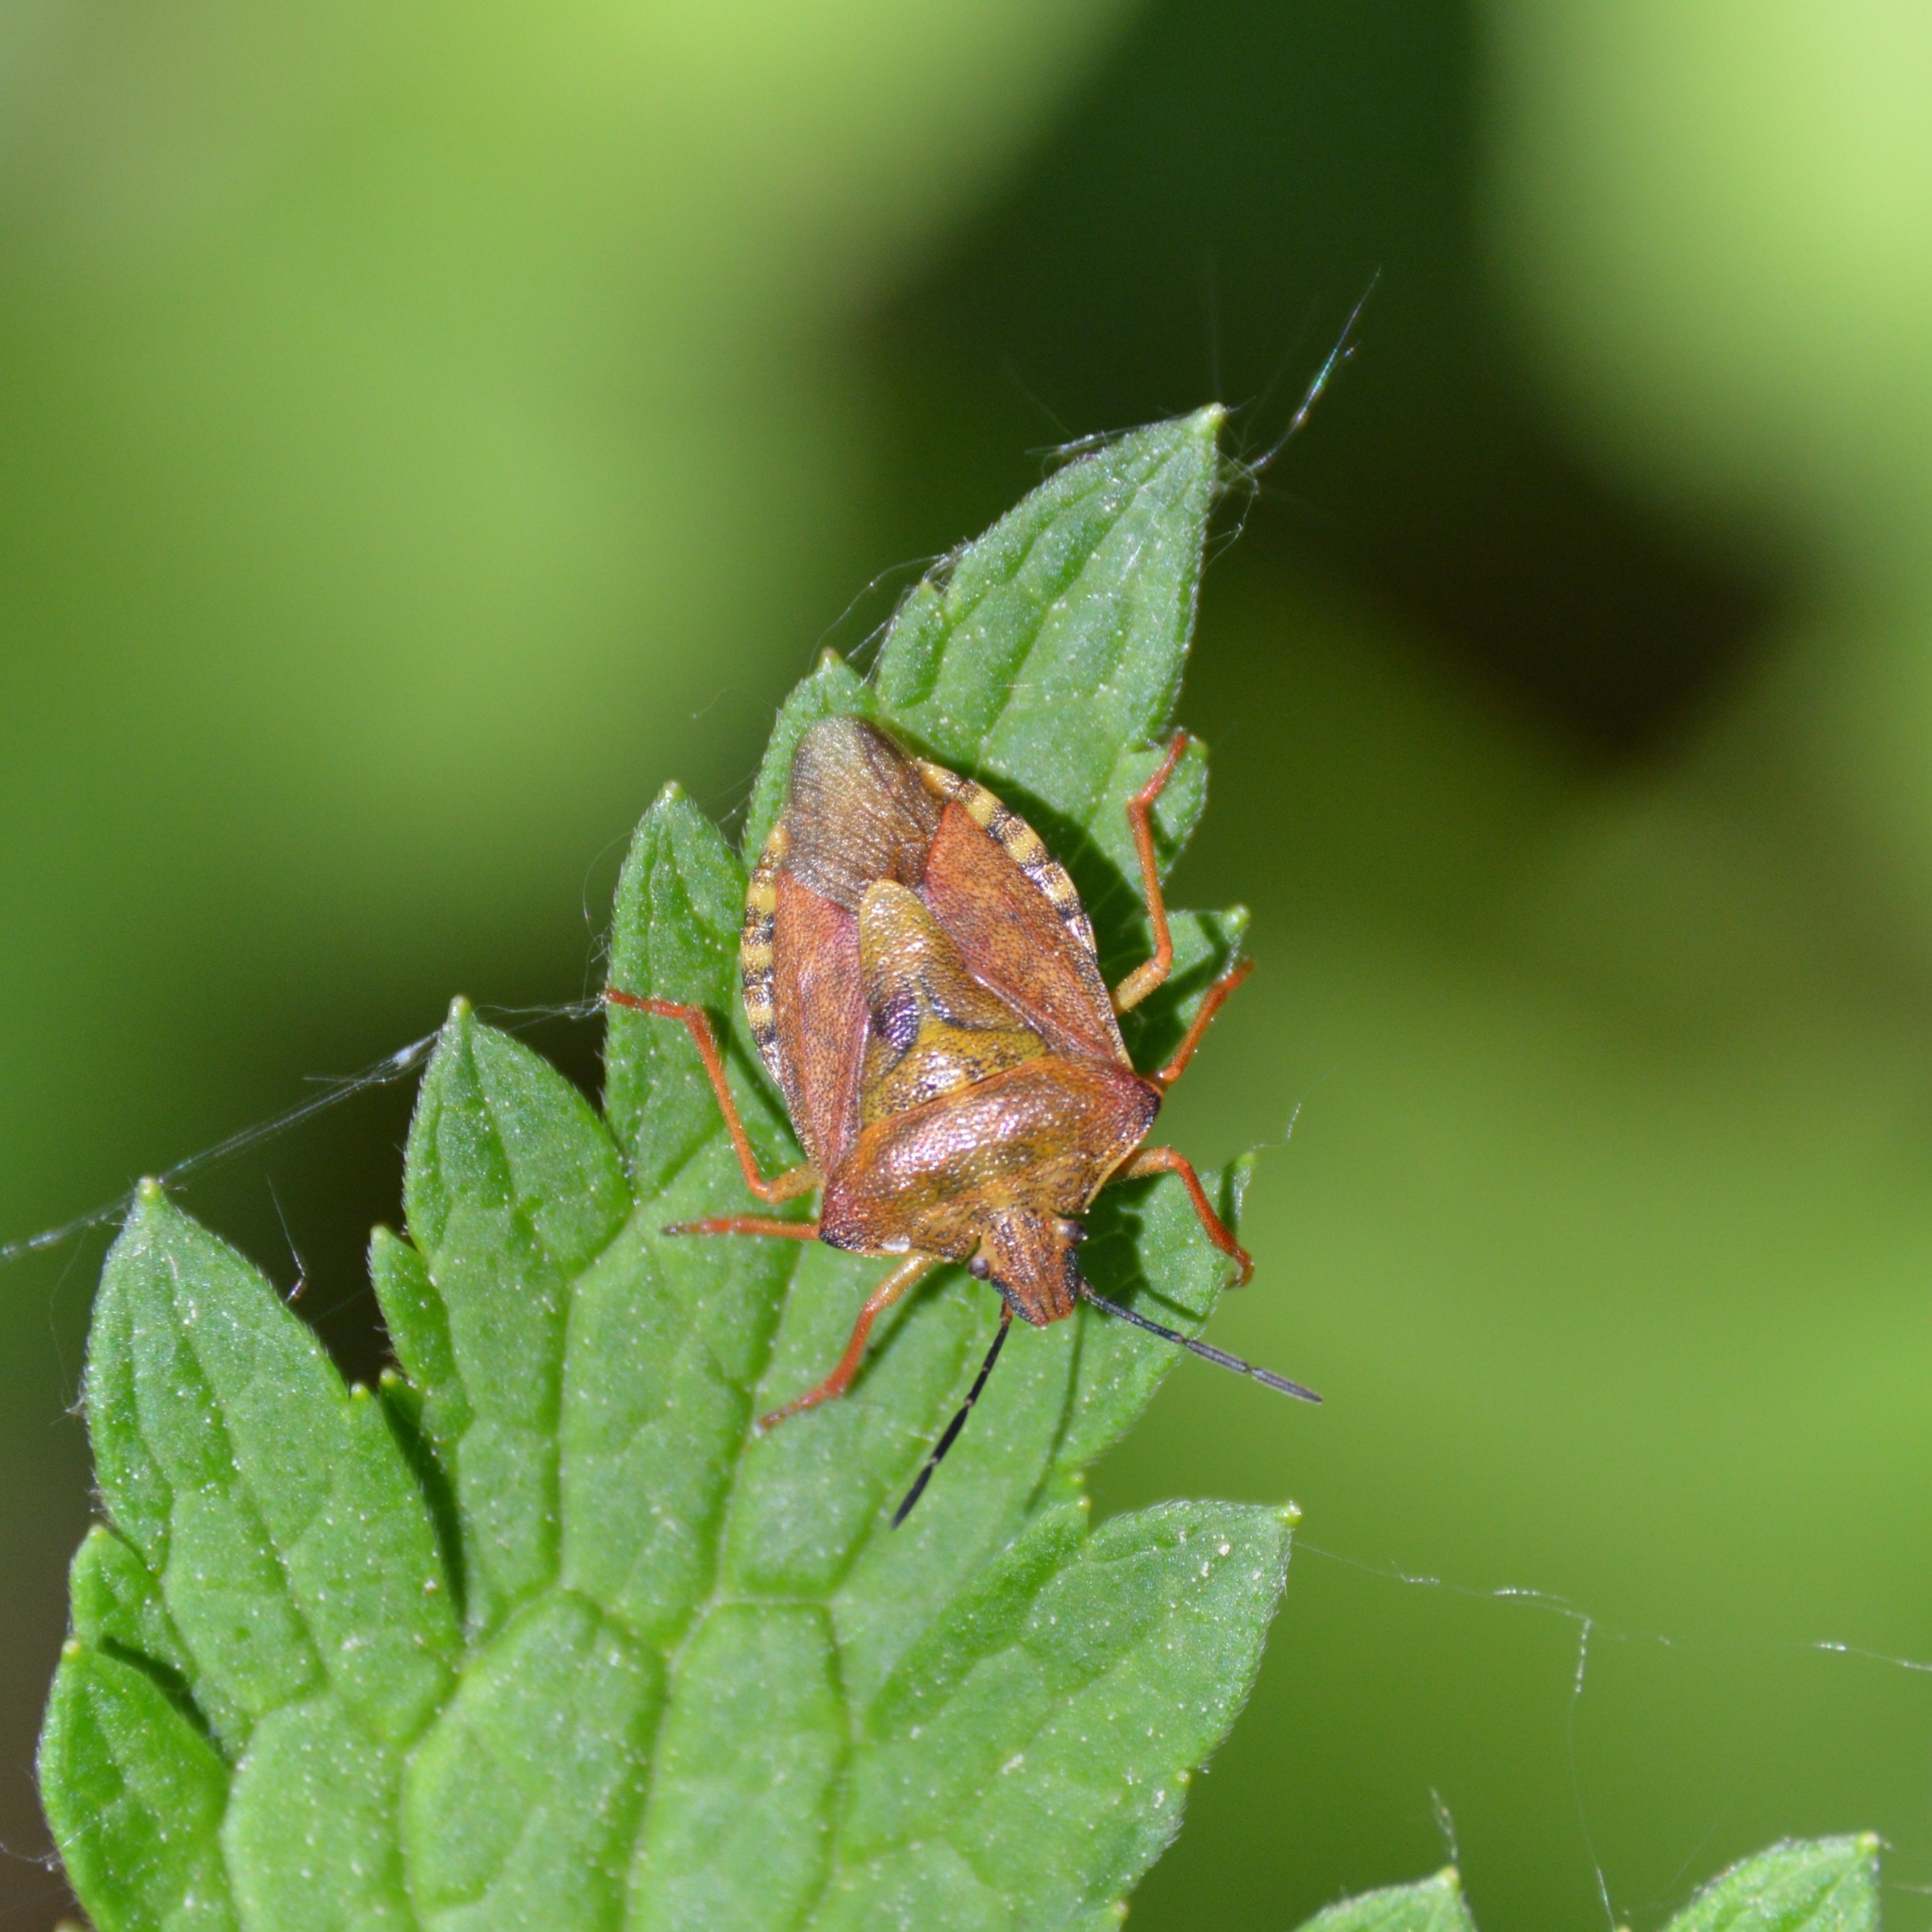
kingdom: Animalia
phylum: Arthropoda
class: Insecta
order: Hemiptera
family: Pentatomidae
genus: Carpocoris
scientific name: Carpocoris purpureipennis
